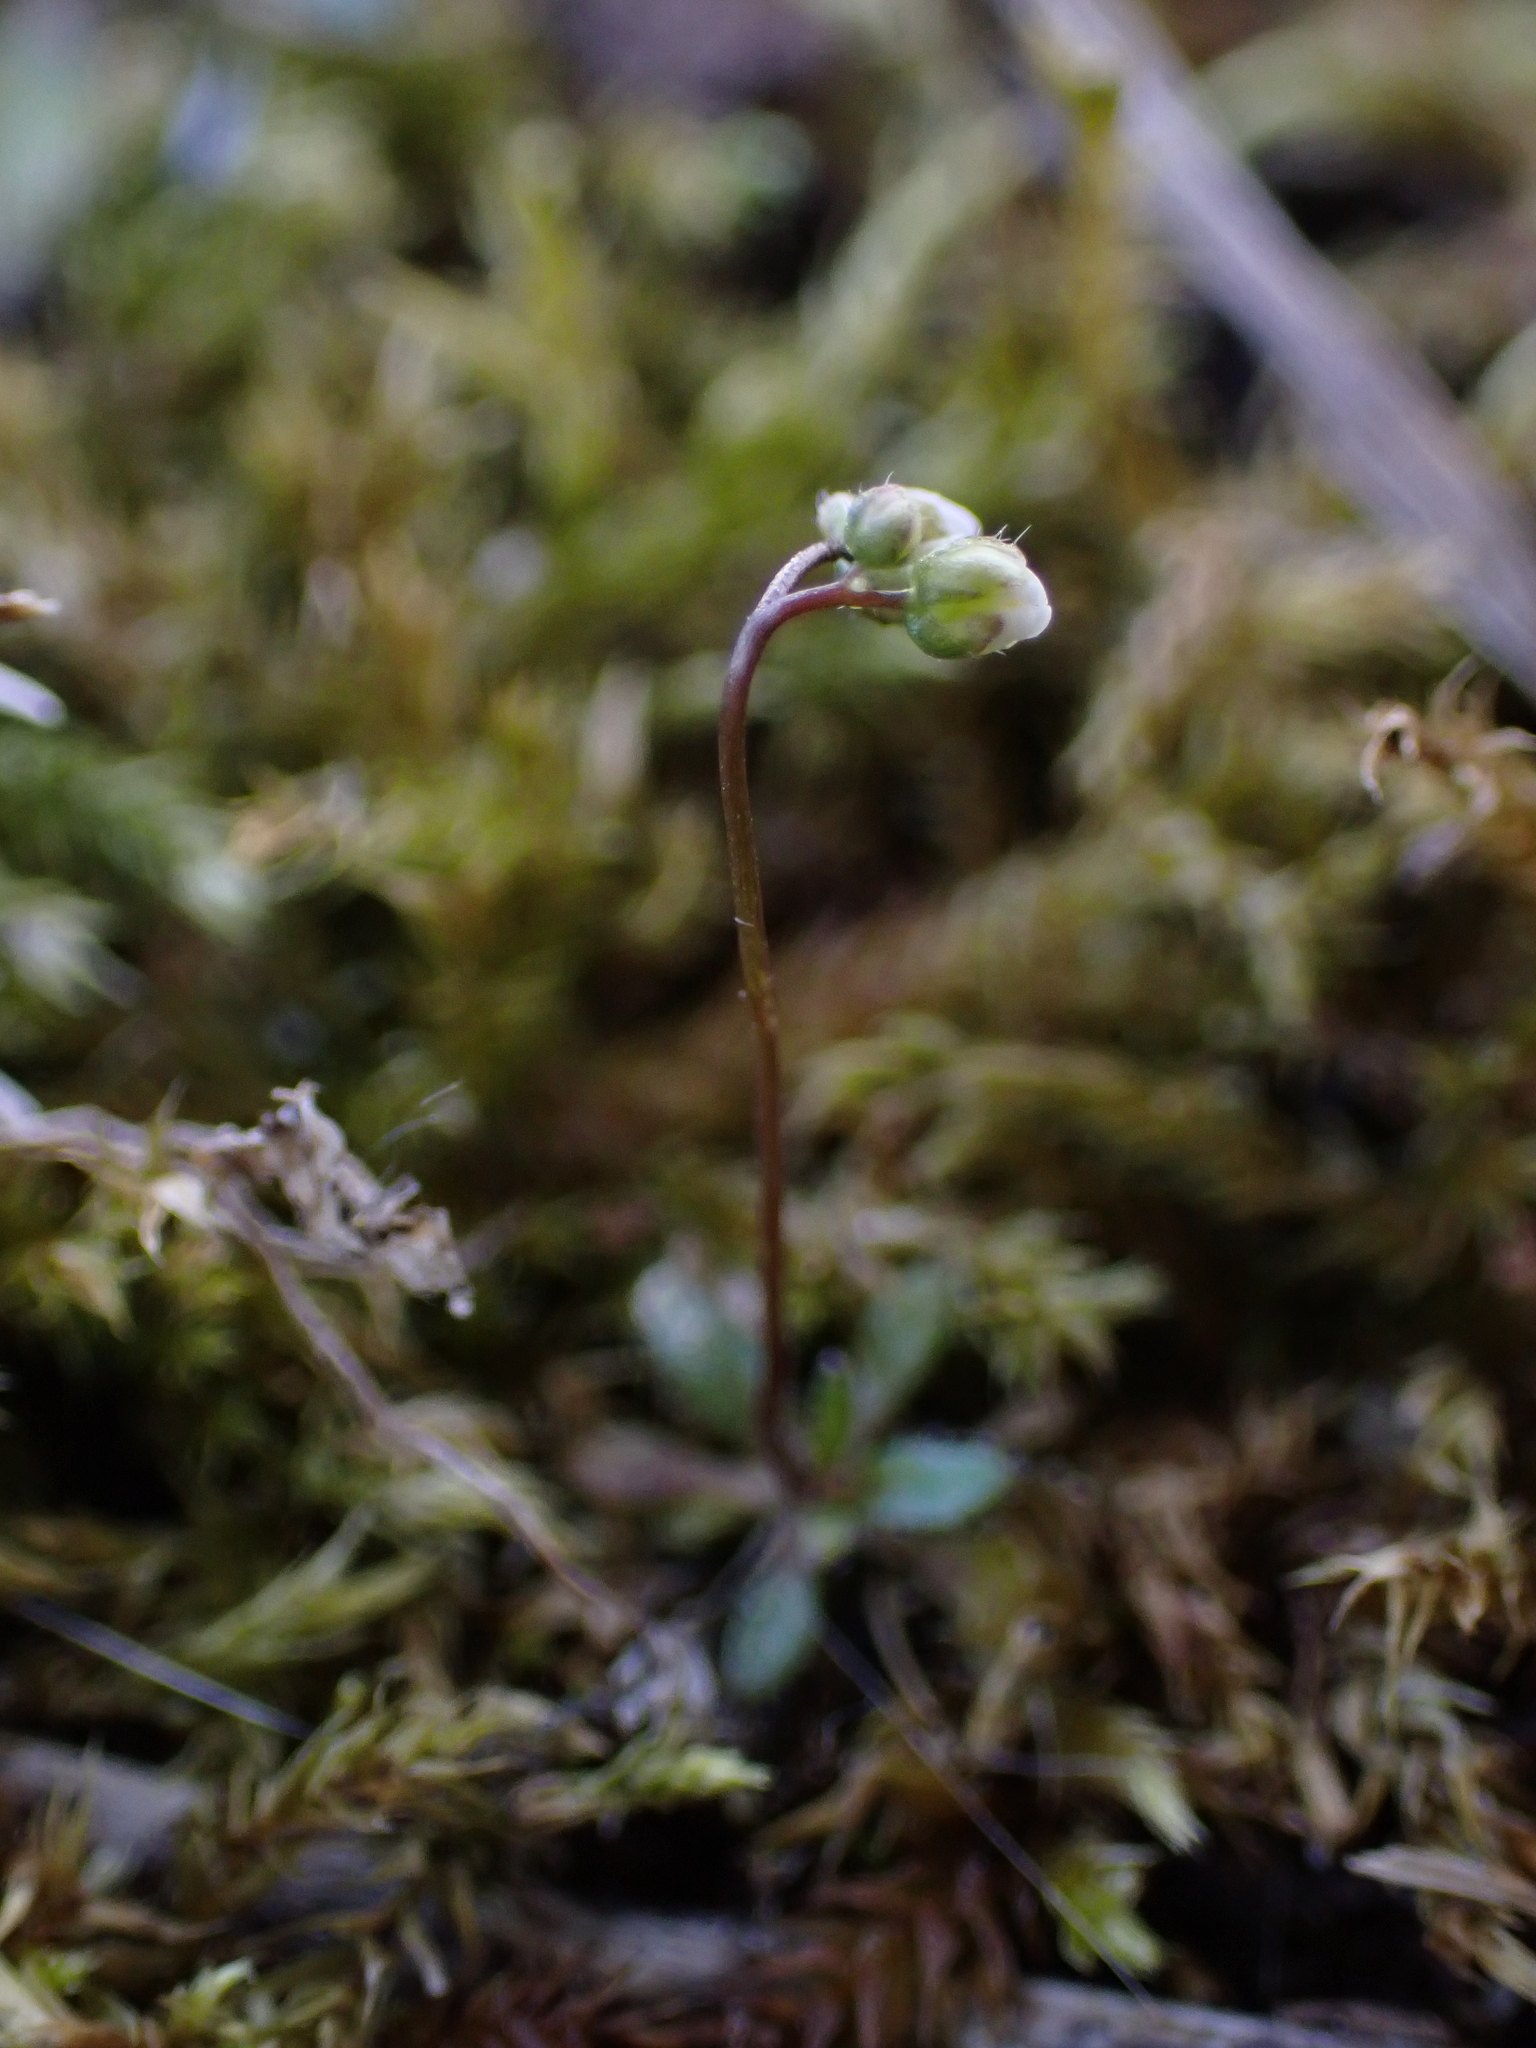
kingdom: Plantae
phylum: Tracheophyta
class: Magnoliopsida
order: Brassicales
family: Brassicaceae
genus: Draba
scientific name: Draba verna
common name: Spring draba
